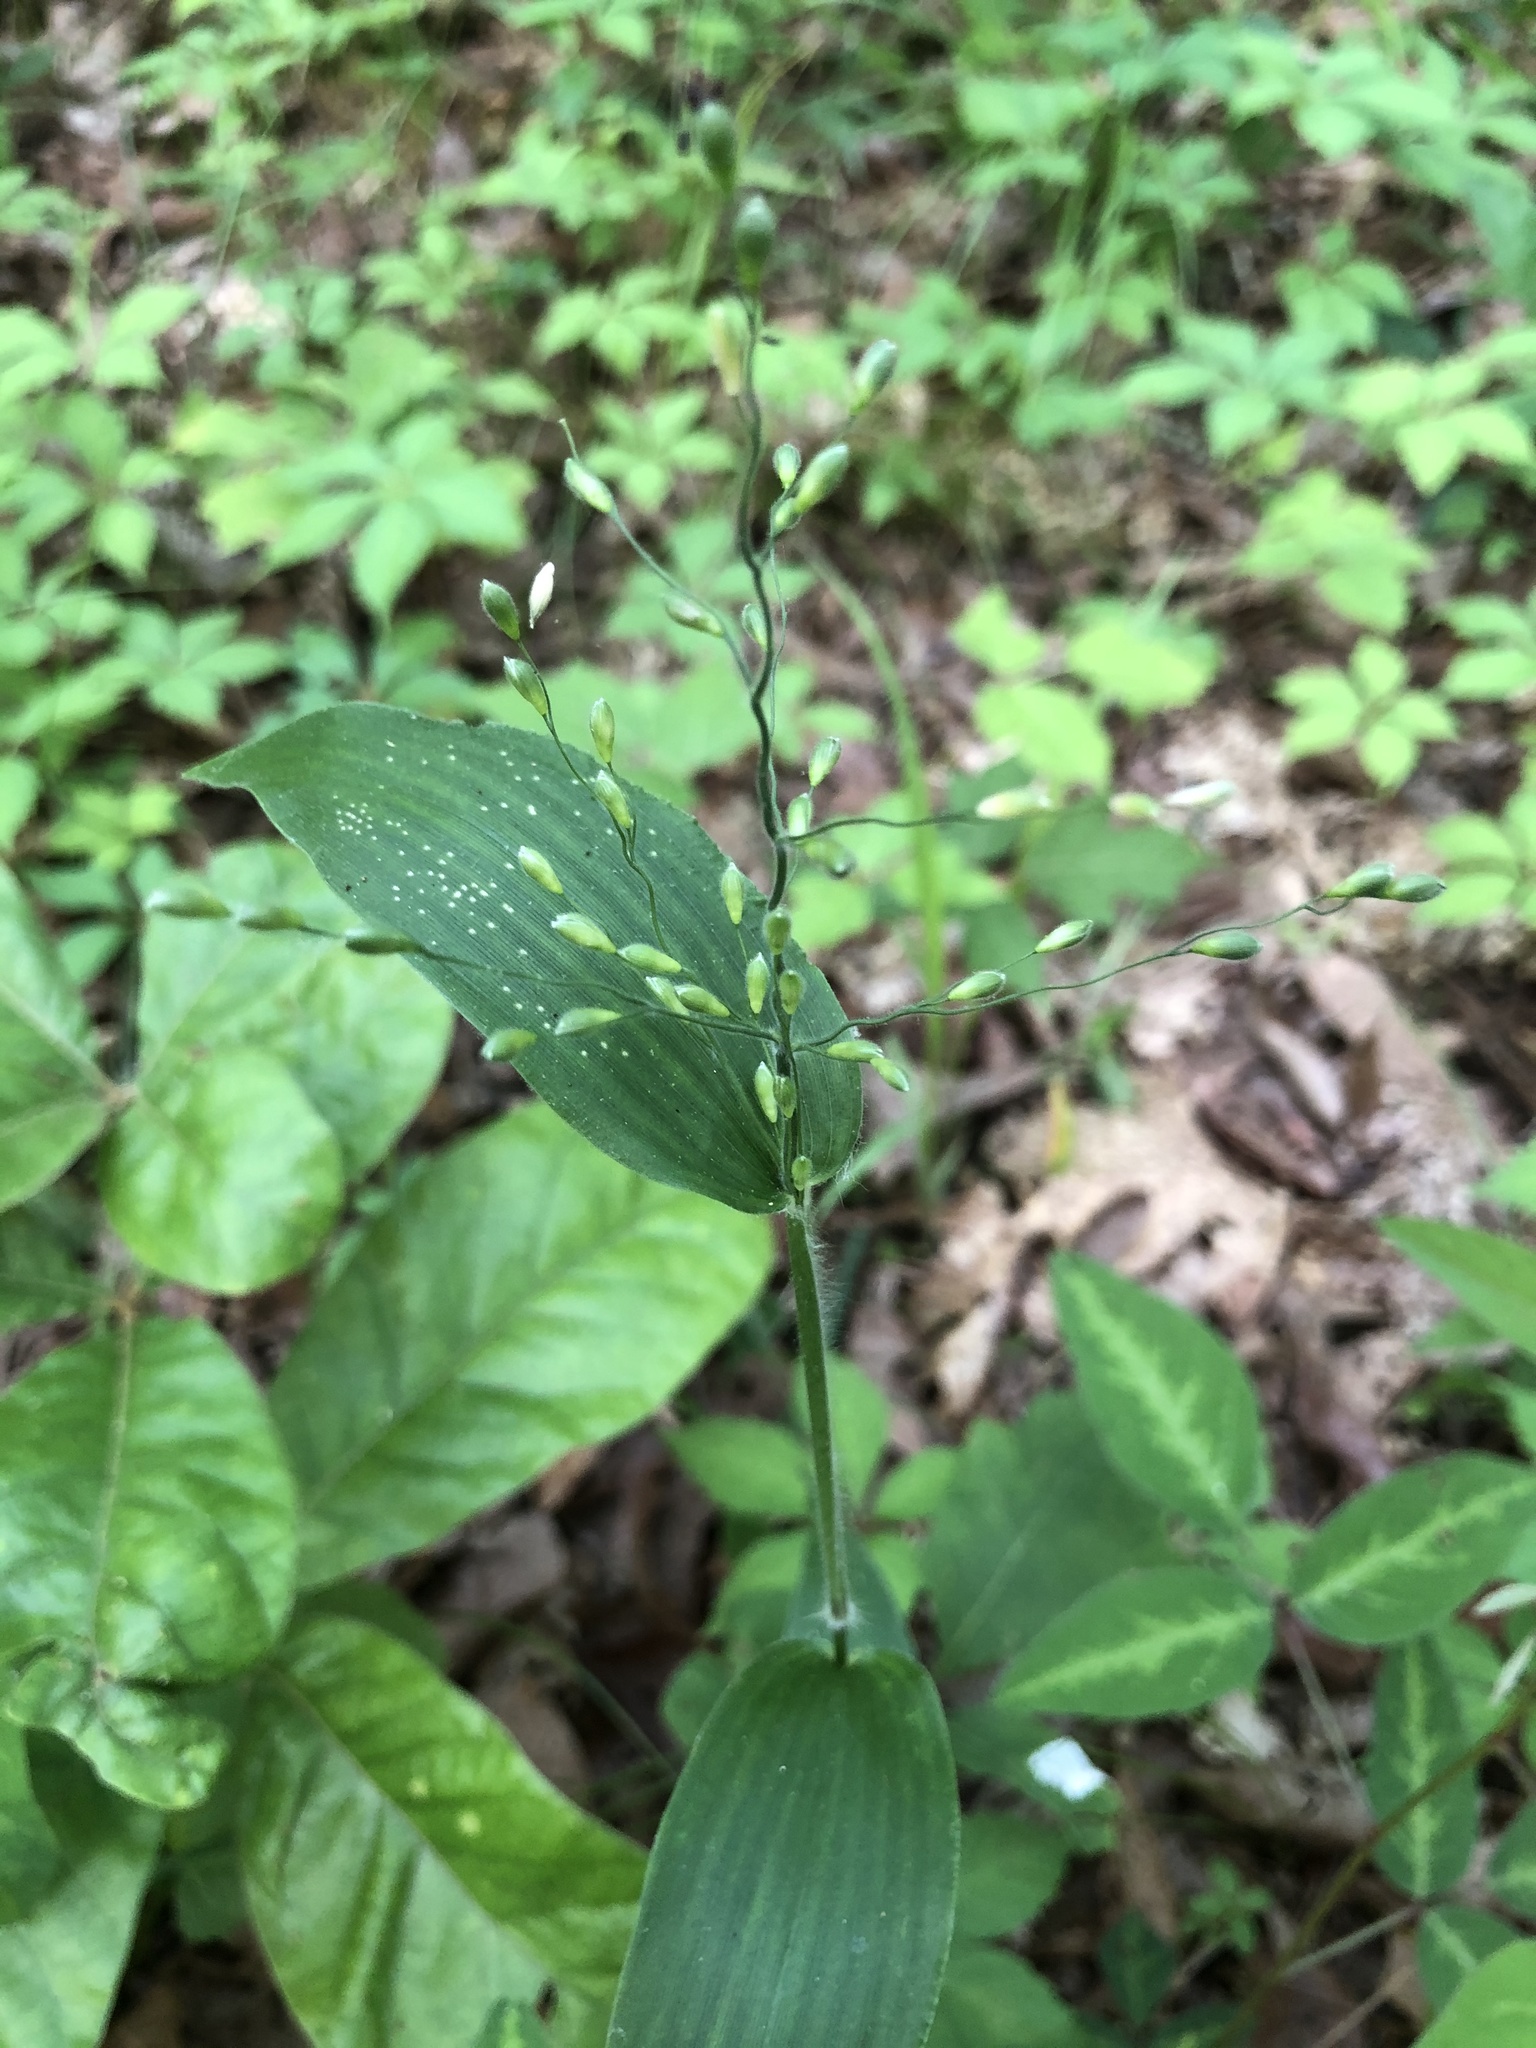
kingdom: Plantae
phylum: Tracheophyta
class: Liliopsida
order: Poales
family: Poaceae
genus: Dichanthelium
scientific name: Dichanthelium boscii
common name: Bosc's panic grass
